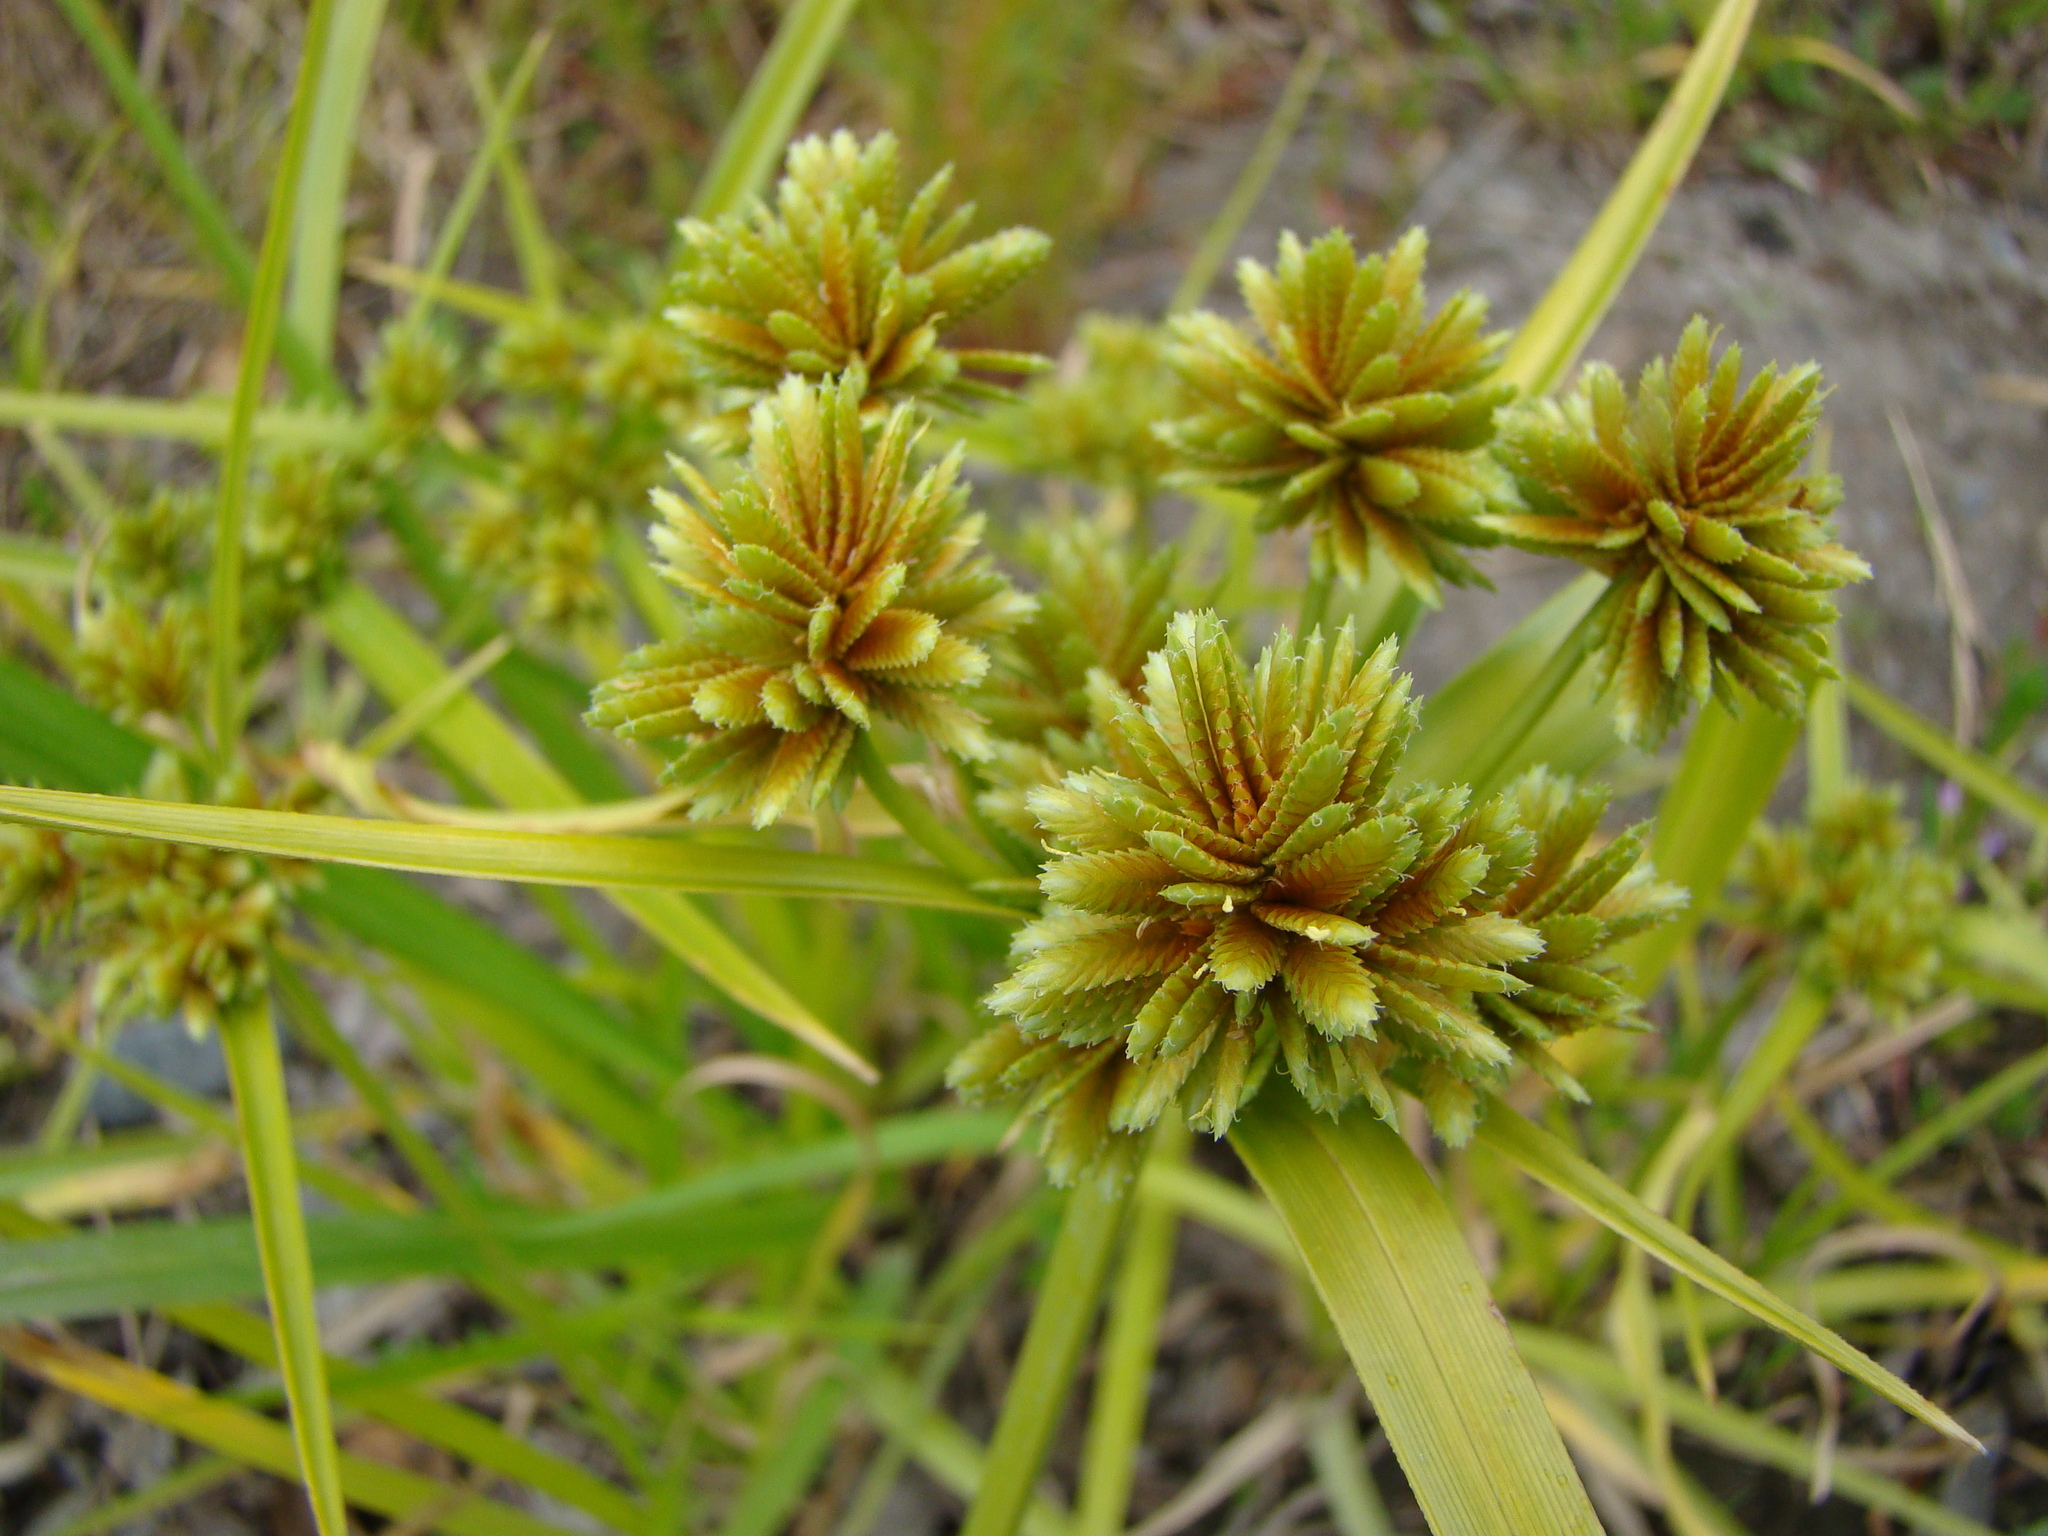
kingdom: Plantae
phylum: Tracheophyta
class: Liliopsida
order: Poales
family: Cyperaceae
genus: Cyperus
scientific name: Cyperus eragrostis
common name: Tall flatsedge
